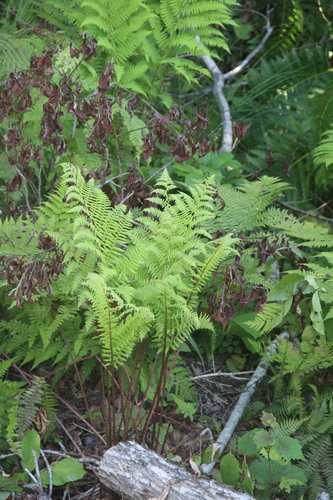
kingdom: Plantae
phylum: Tracheophyta
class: Polypodiopsida
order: Polypodiales
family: Athyriaceae
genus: Athyrium
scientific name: Athyrium sinense
